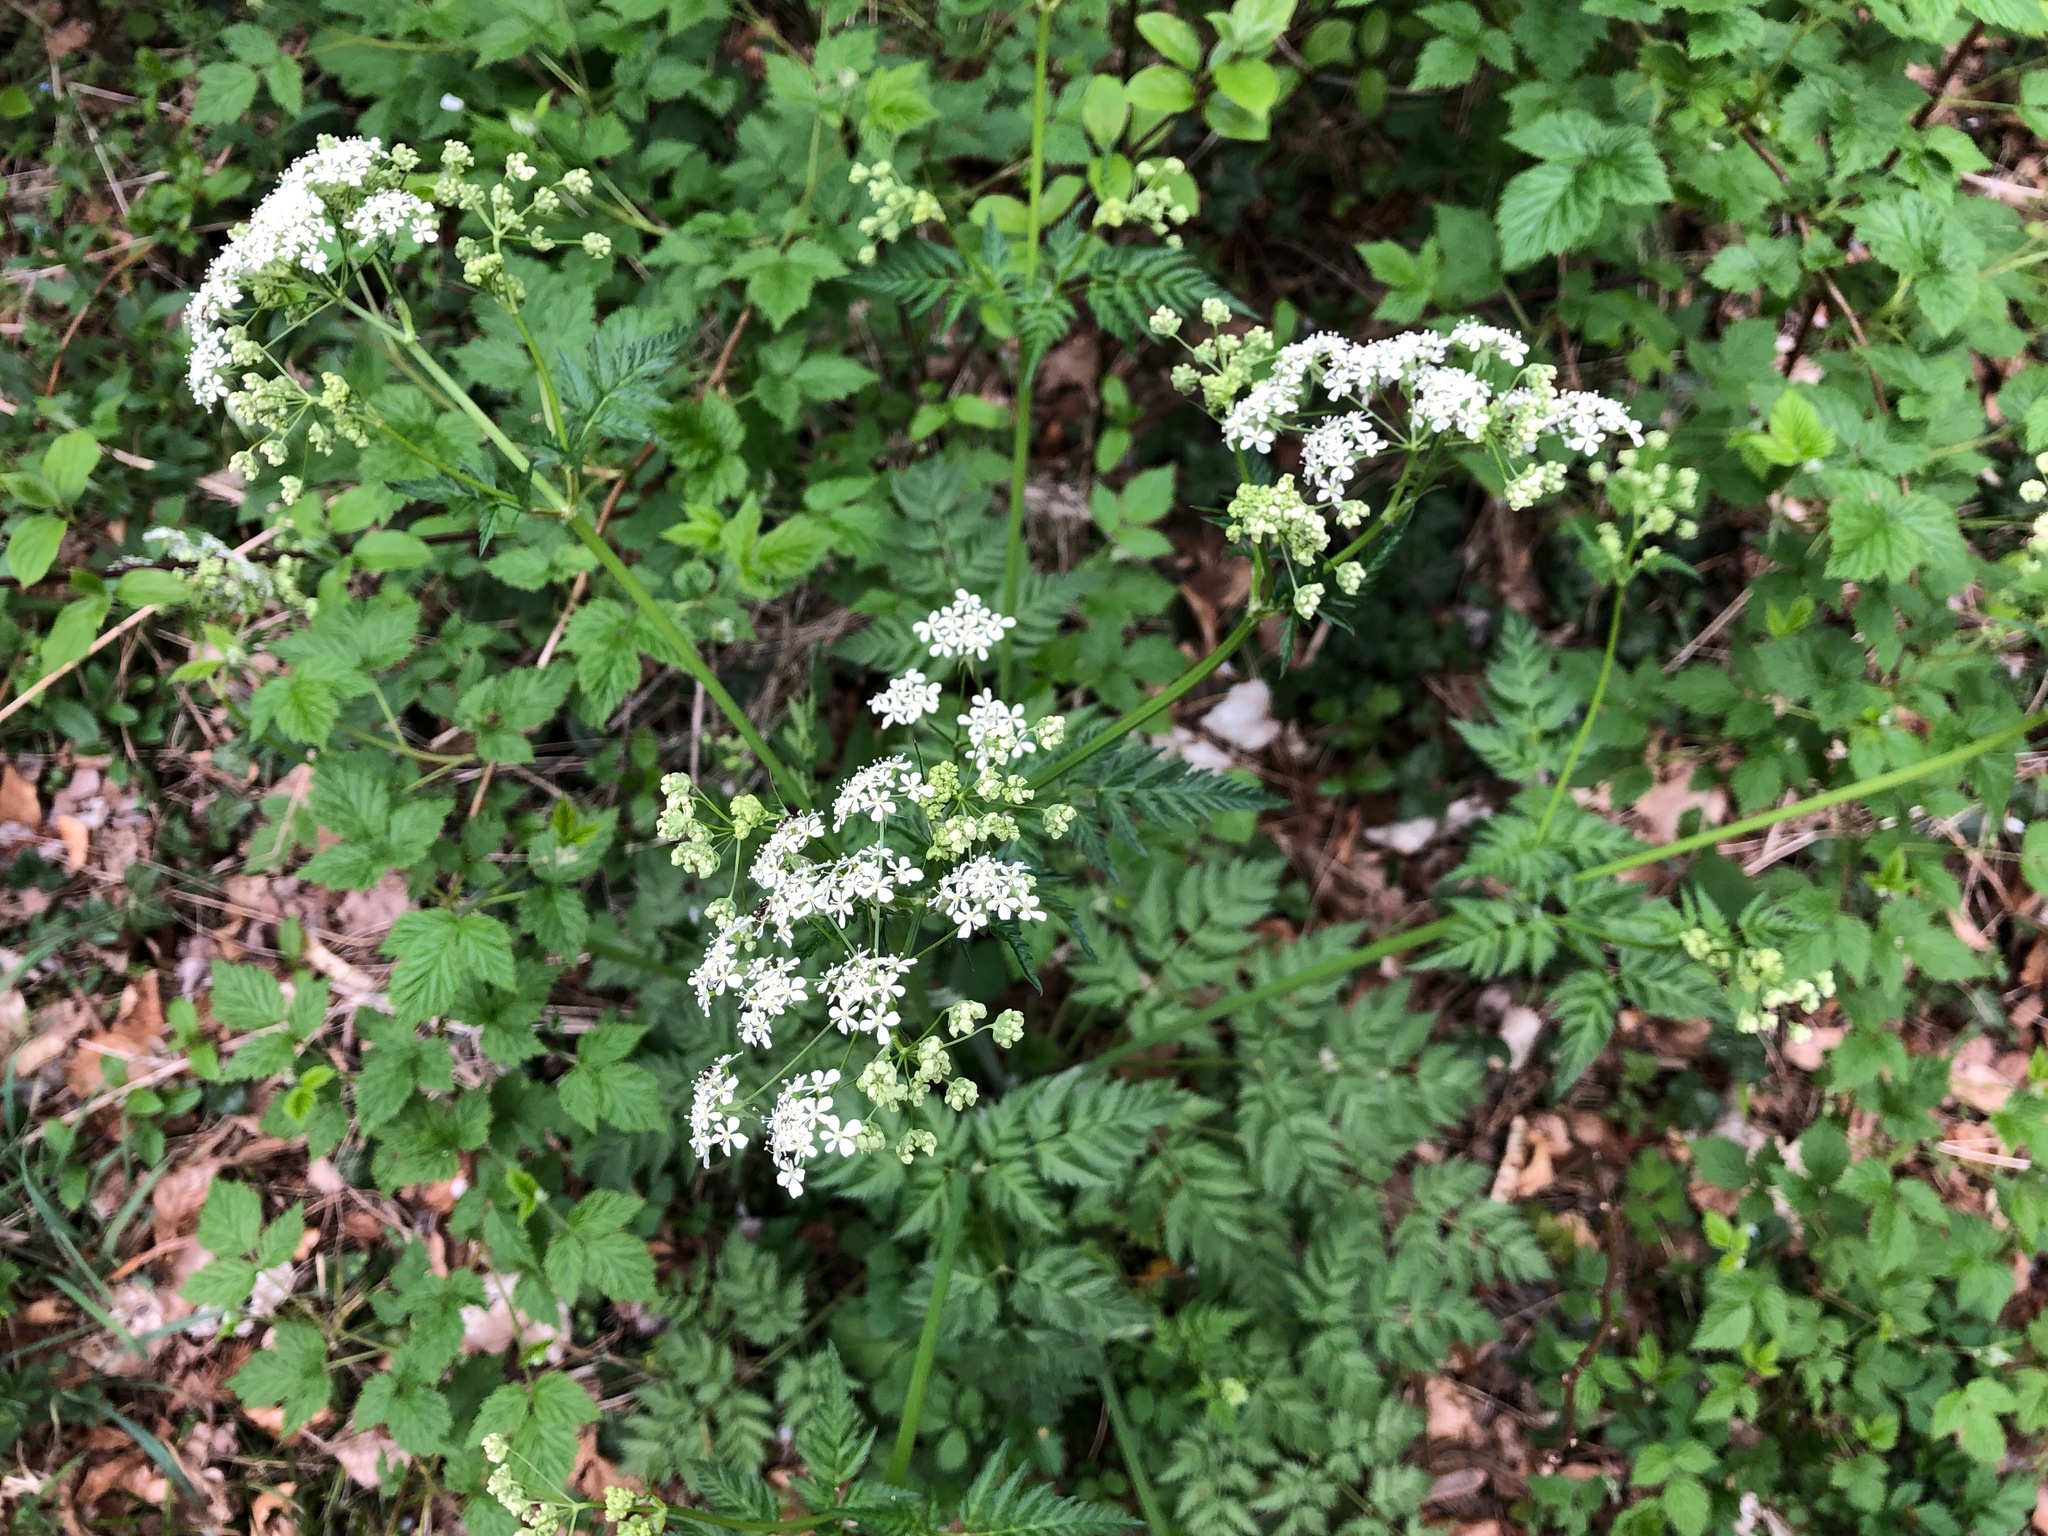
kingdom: Plantae
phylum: Tracheophyta
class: Magnoliopsida
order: Apiales
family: Apiaceae
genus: Anthriscus
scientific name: Anthriscus sylvestris
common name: Cow parsley
